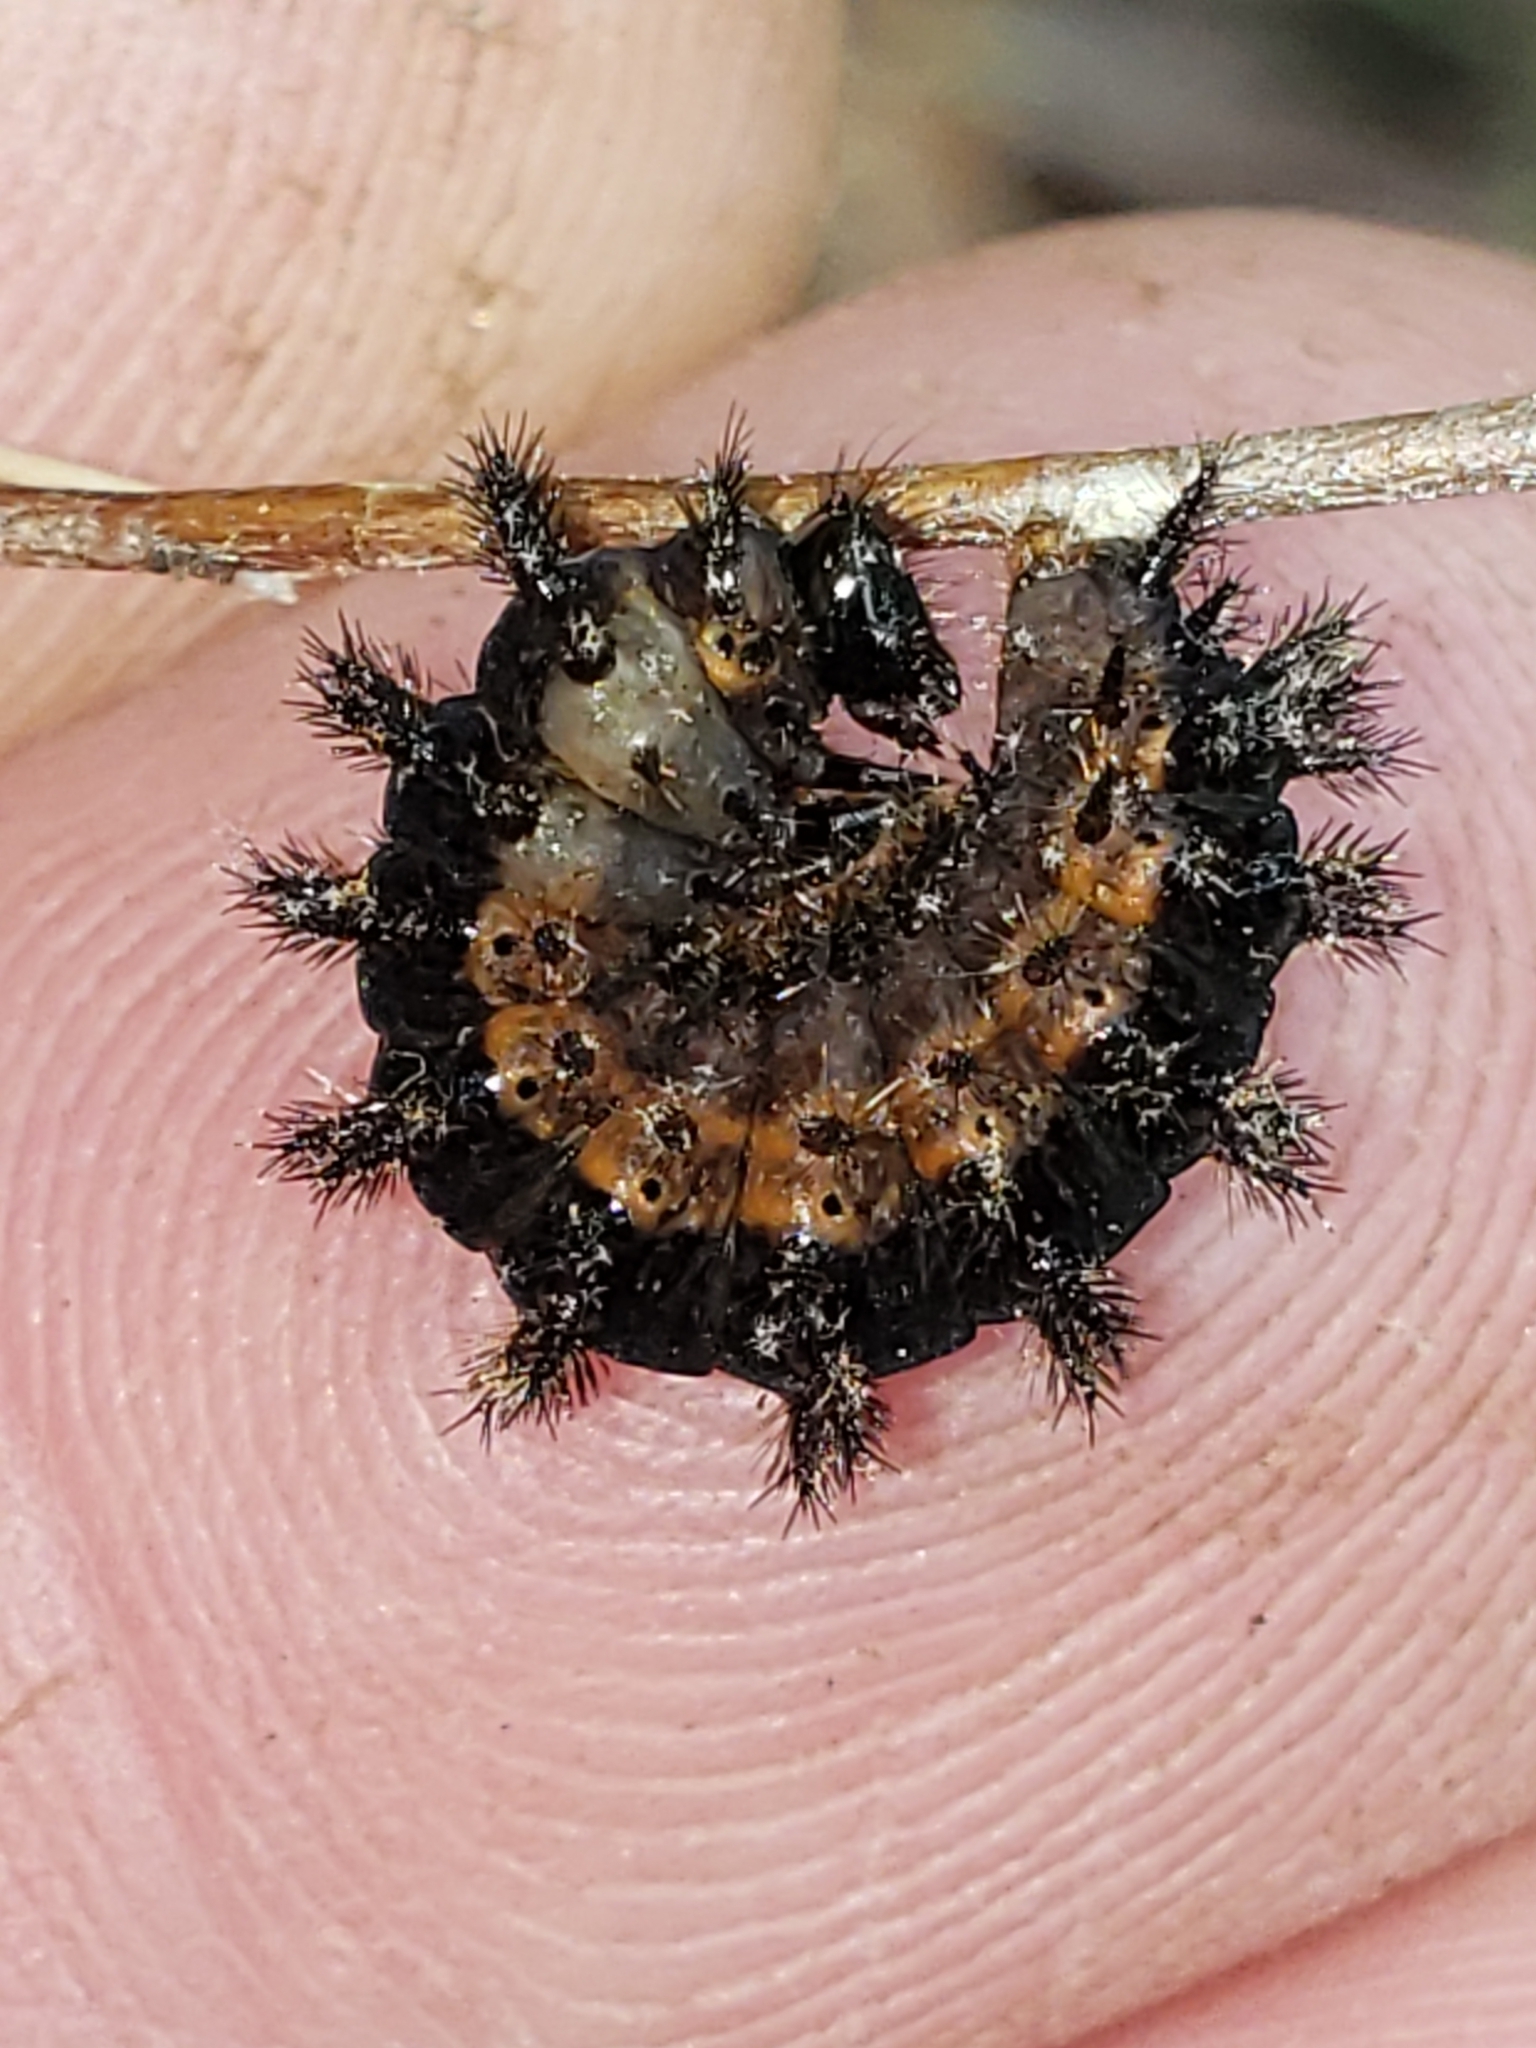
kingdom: Animalia
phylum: Arthropoda
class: Insecta
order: Lepidoptera
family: Nymphalidae
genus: Chlosyne
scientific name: Chlosyne nycteis
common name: Silvery checkerspot
